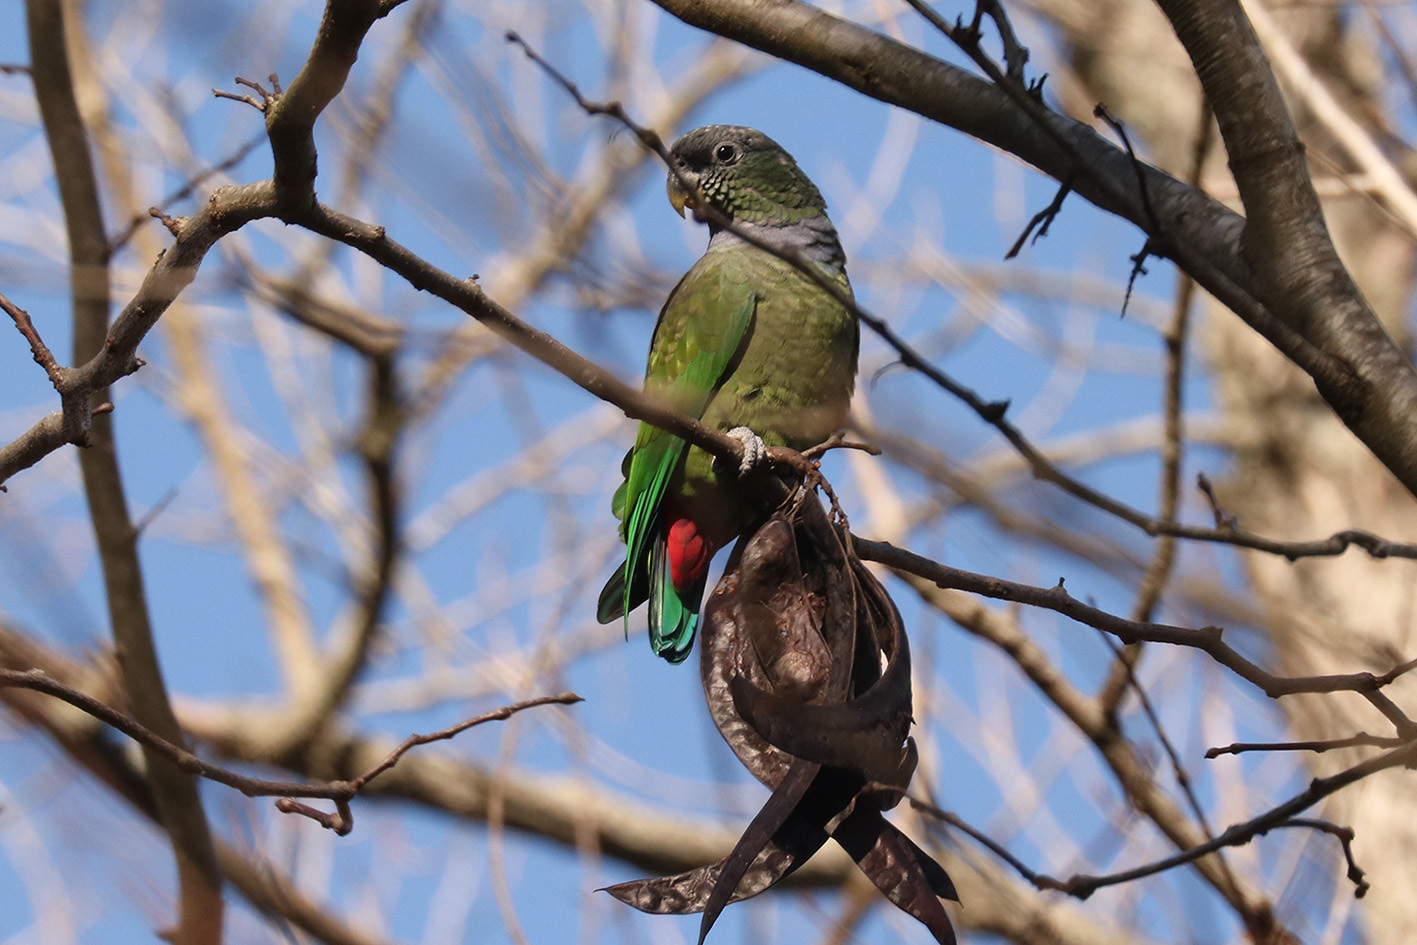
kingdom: Animalia
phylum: Chordata
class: Aves
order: Psittaciformes
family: Psittacidae
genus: Pionus
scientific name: Pionus maximiliani
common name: Scaly-headed parrot
